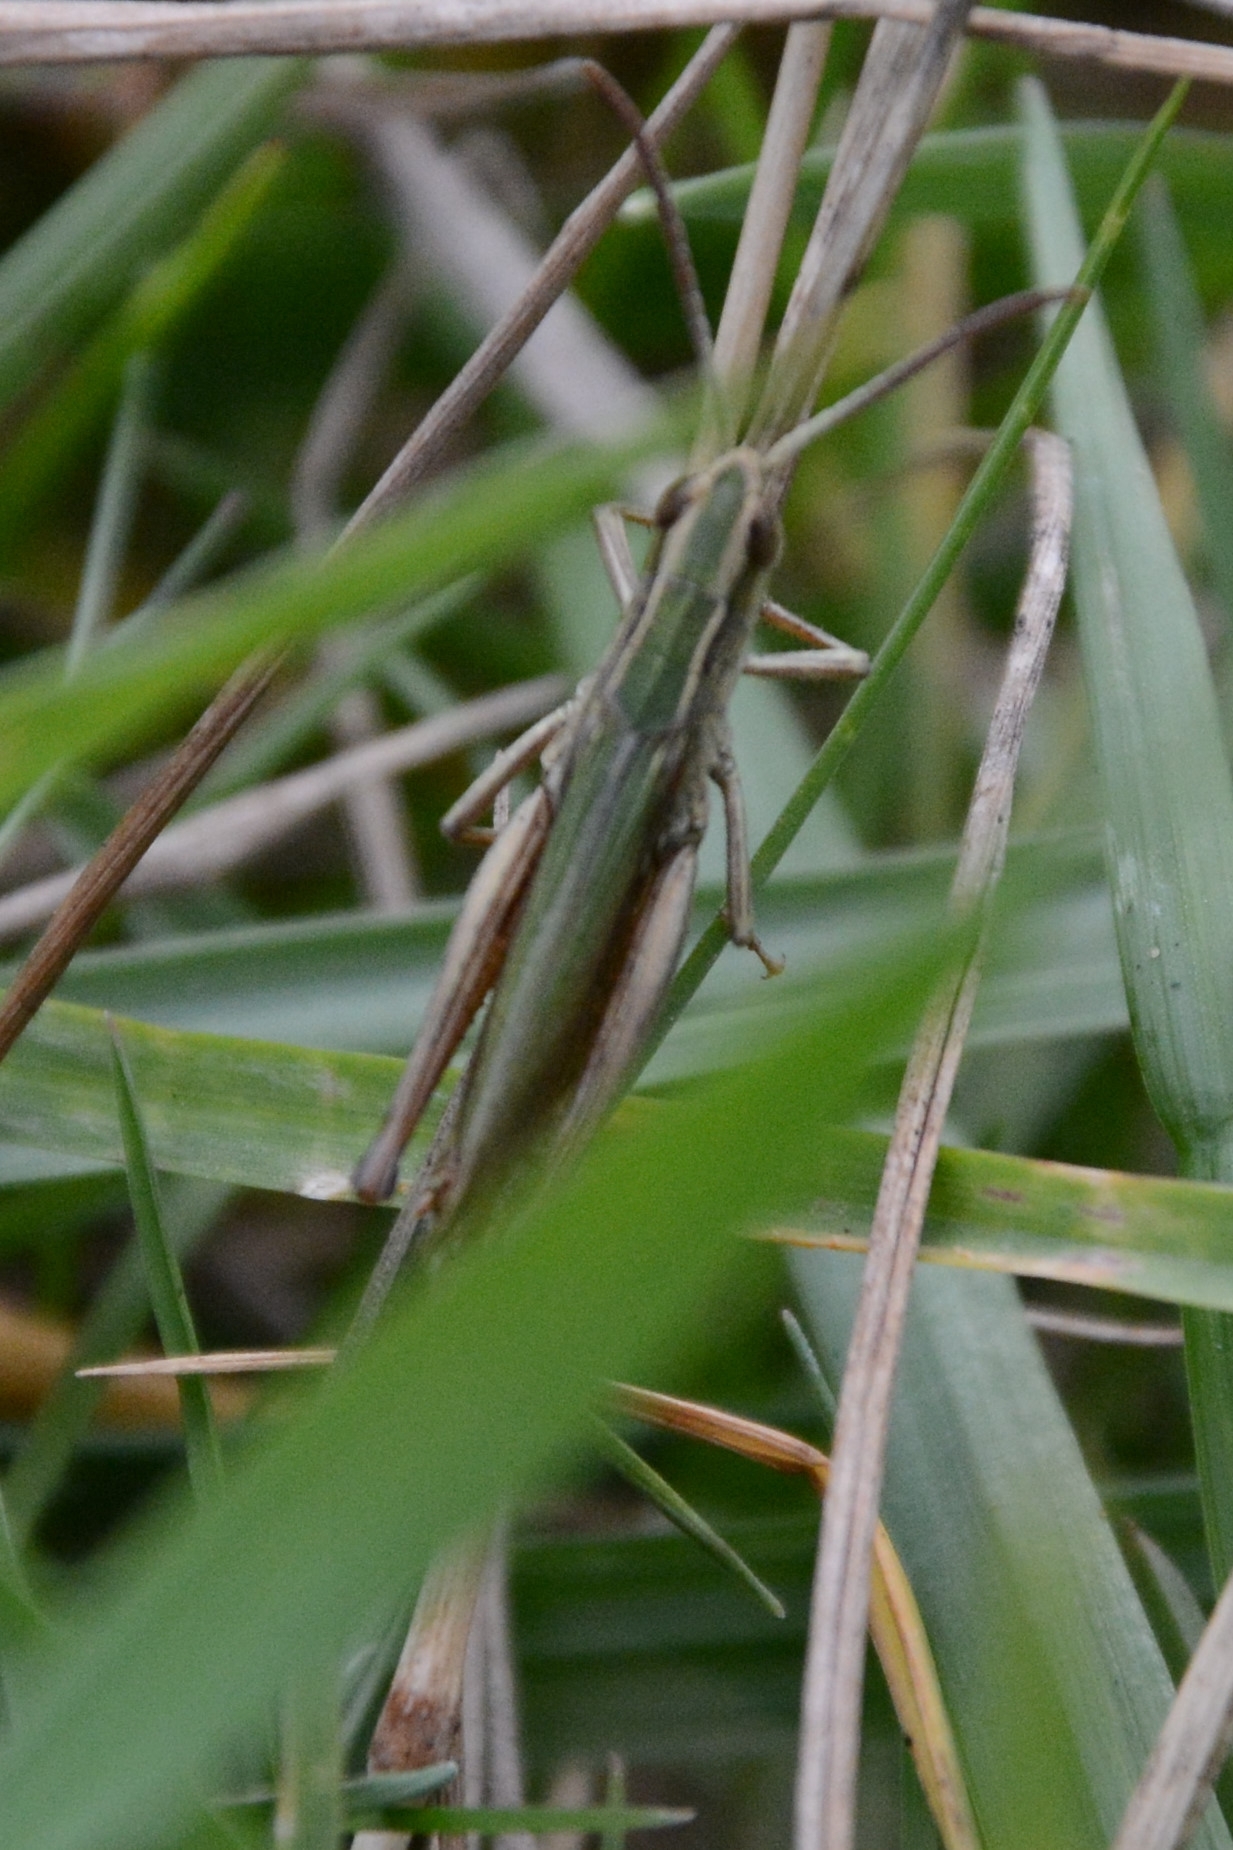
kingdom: Animalia
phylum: Arthropoda
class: Insecta
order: Orthoptera
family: Acrididae
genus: Chorthippus
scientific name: Chorthippus albomarginatus
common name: Lesser marsh grasshopper
